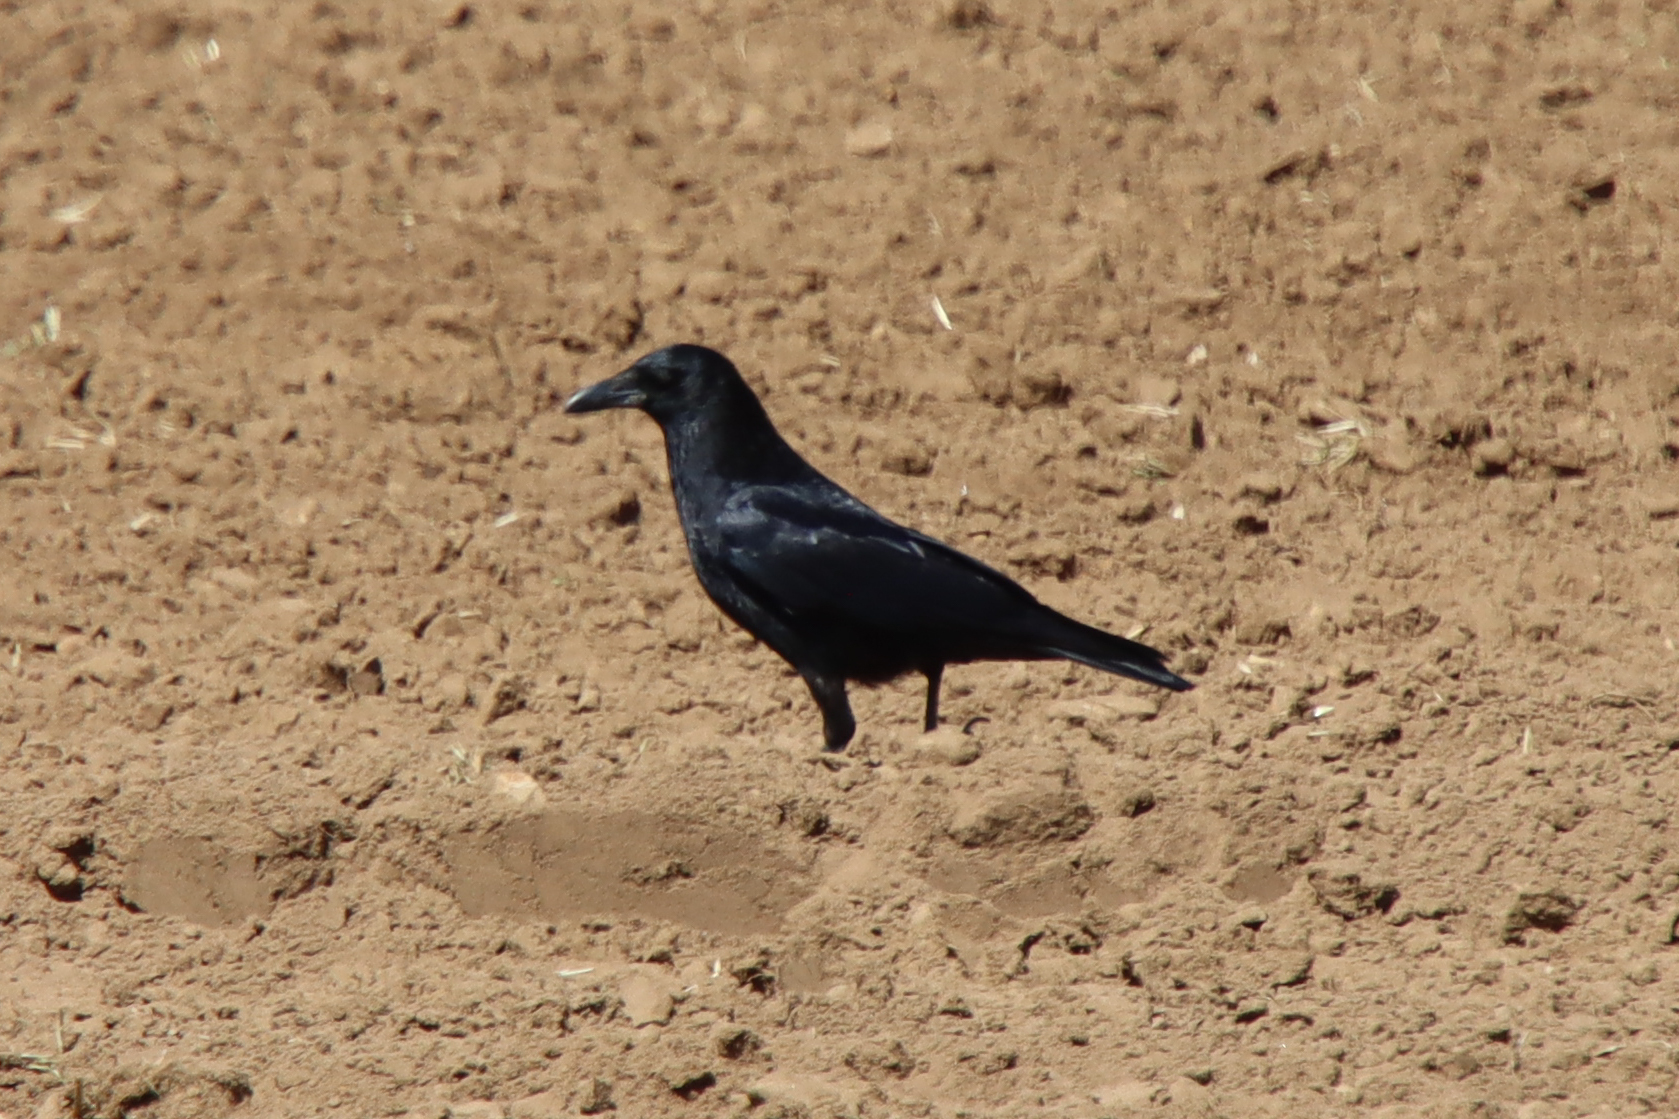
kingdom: Animalia
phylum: Chordata
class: Aves
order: Passeriformes
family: Corvidae
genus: Corvus
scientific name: Corvus corone
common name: Carrion crow
